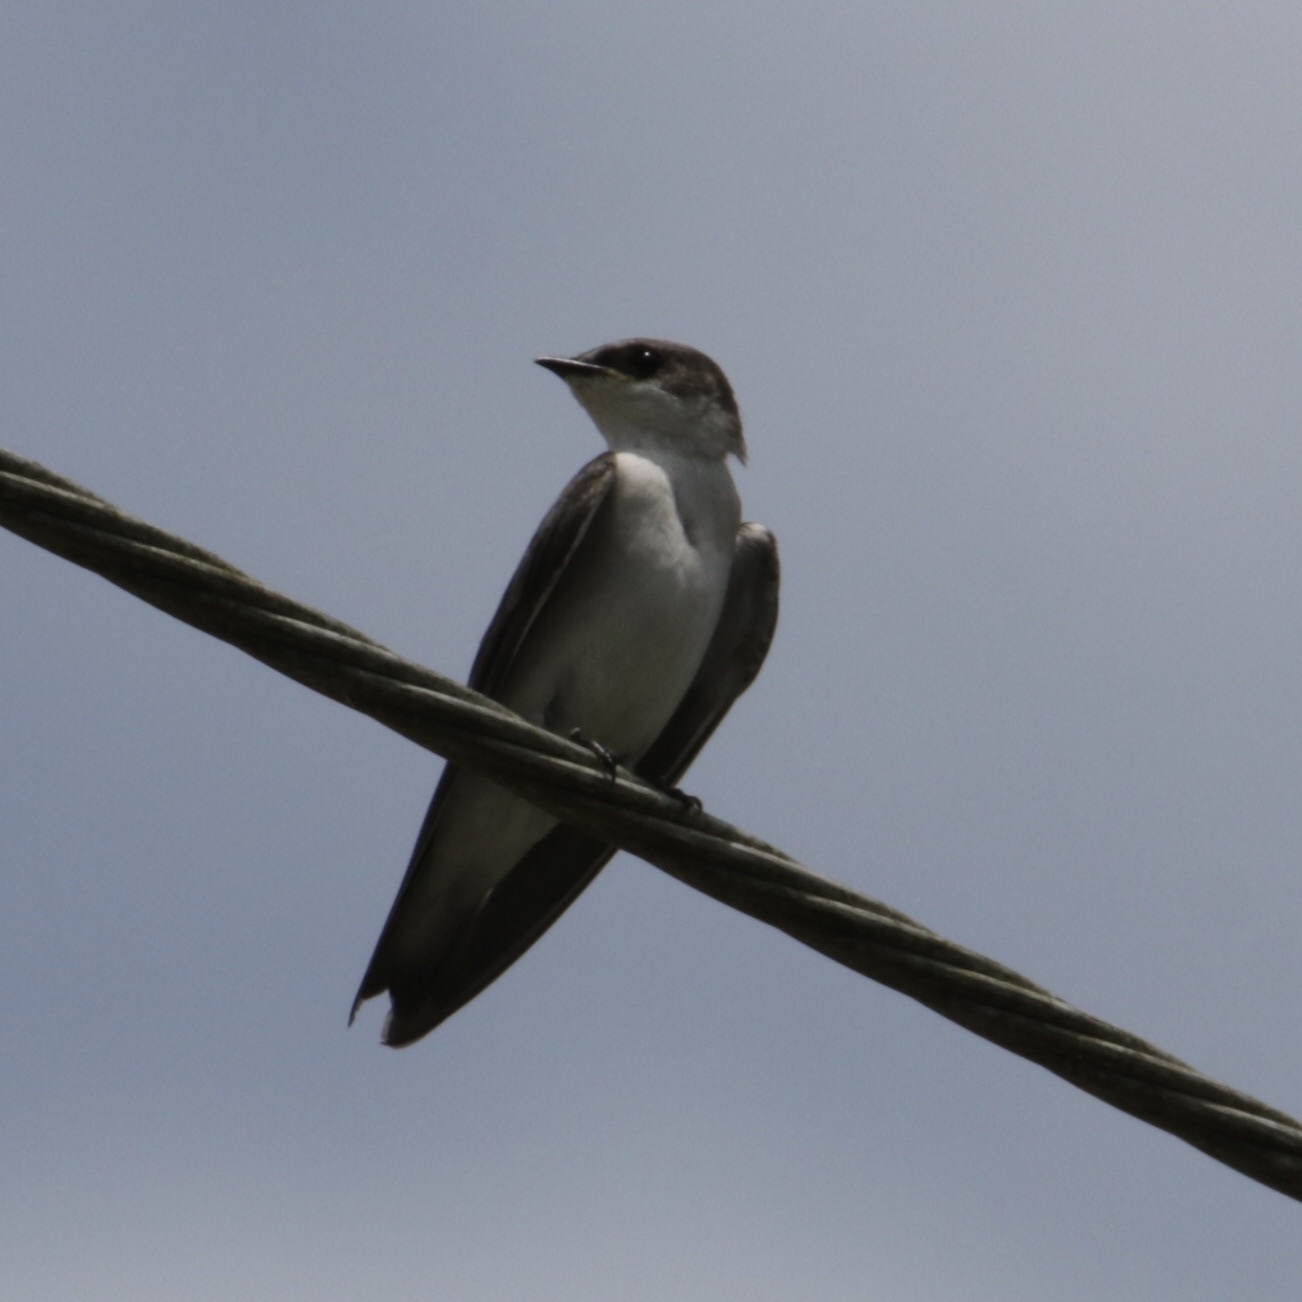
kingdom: Animalia
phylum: Chordata
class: Aves
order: Passeriformes
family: Hirundinidae
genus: Tachycineta
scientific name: Tachycineta albilinea
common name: Mangrove swallow
